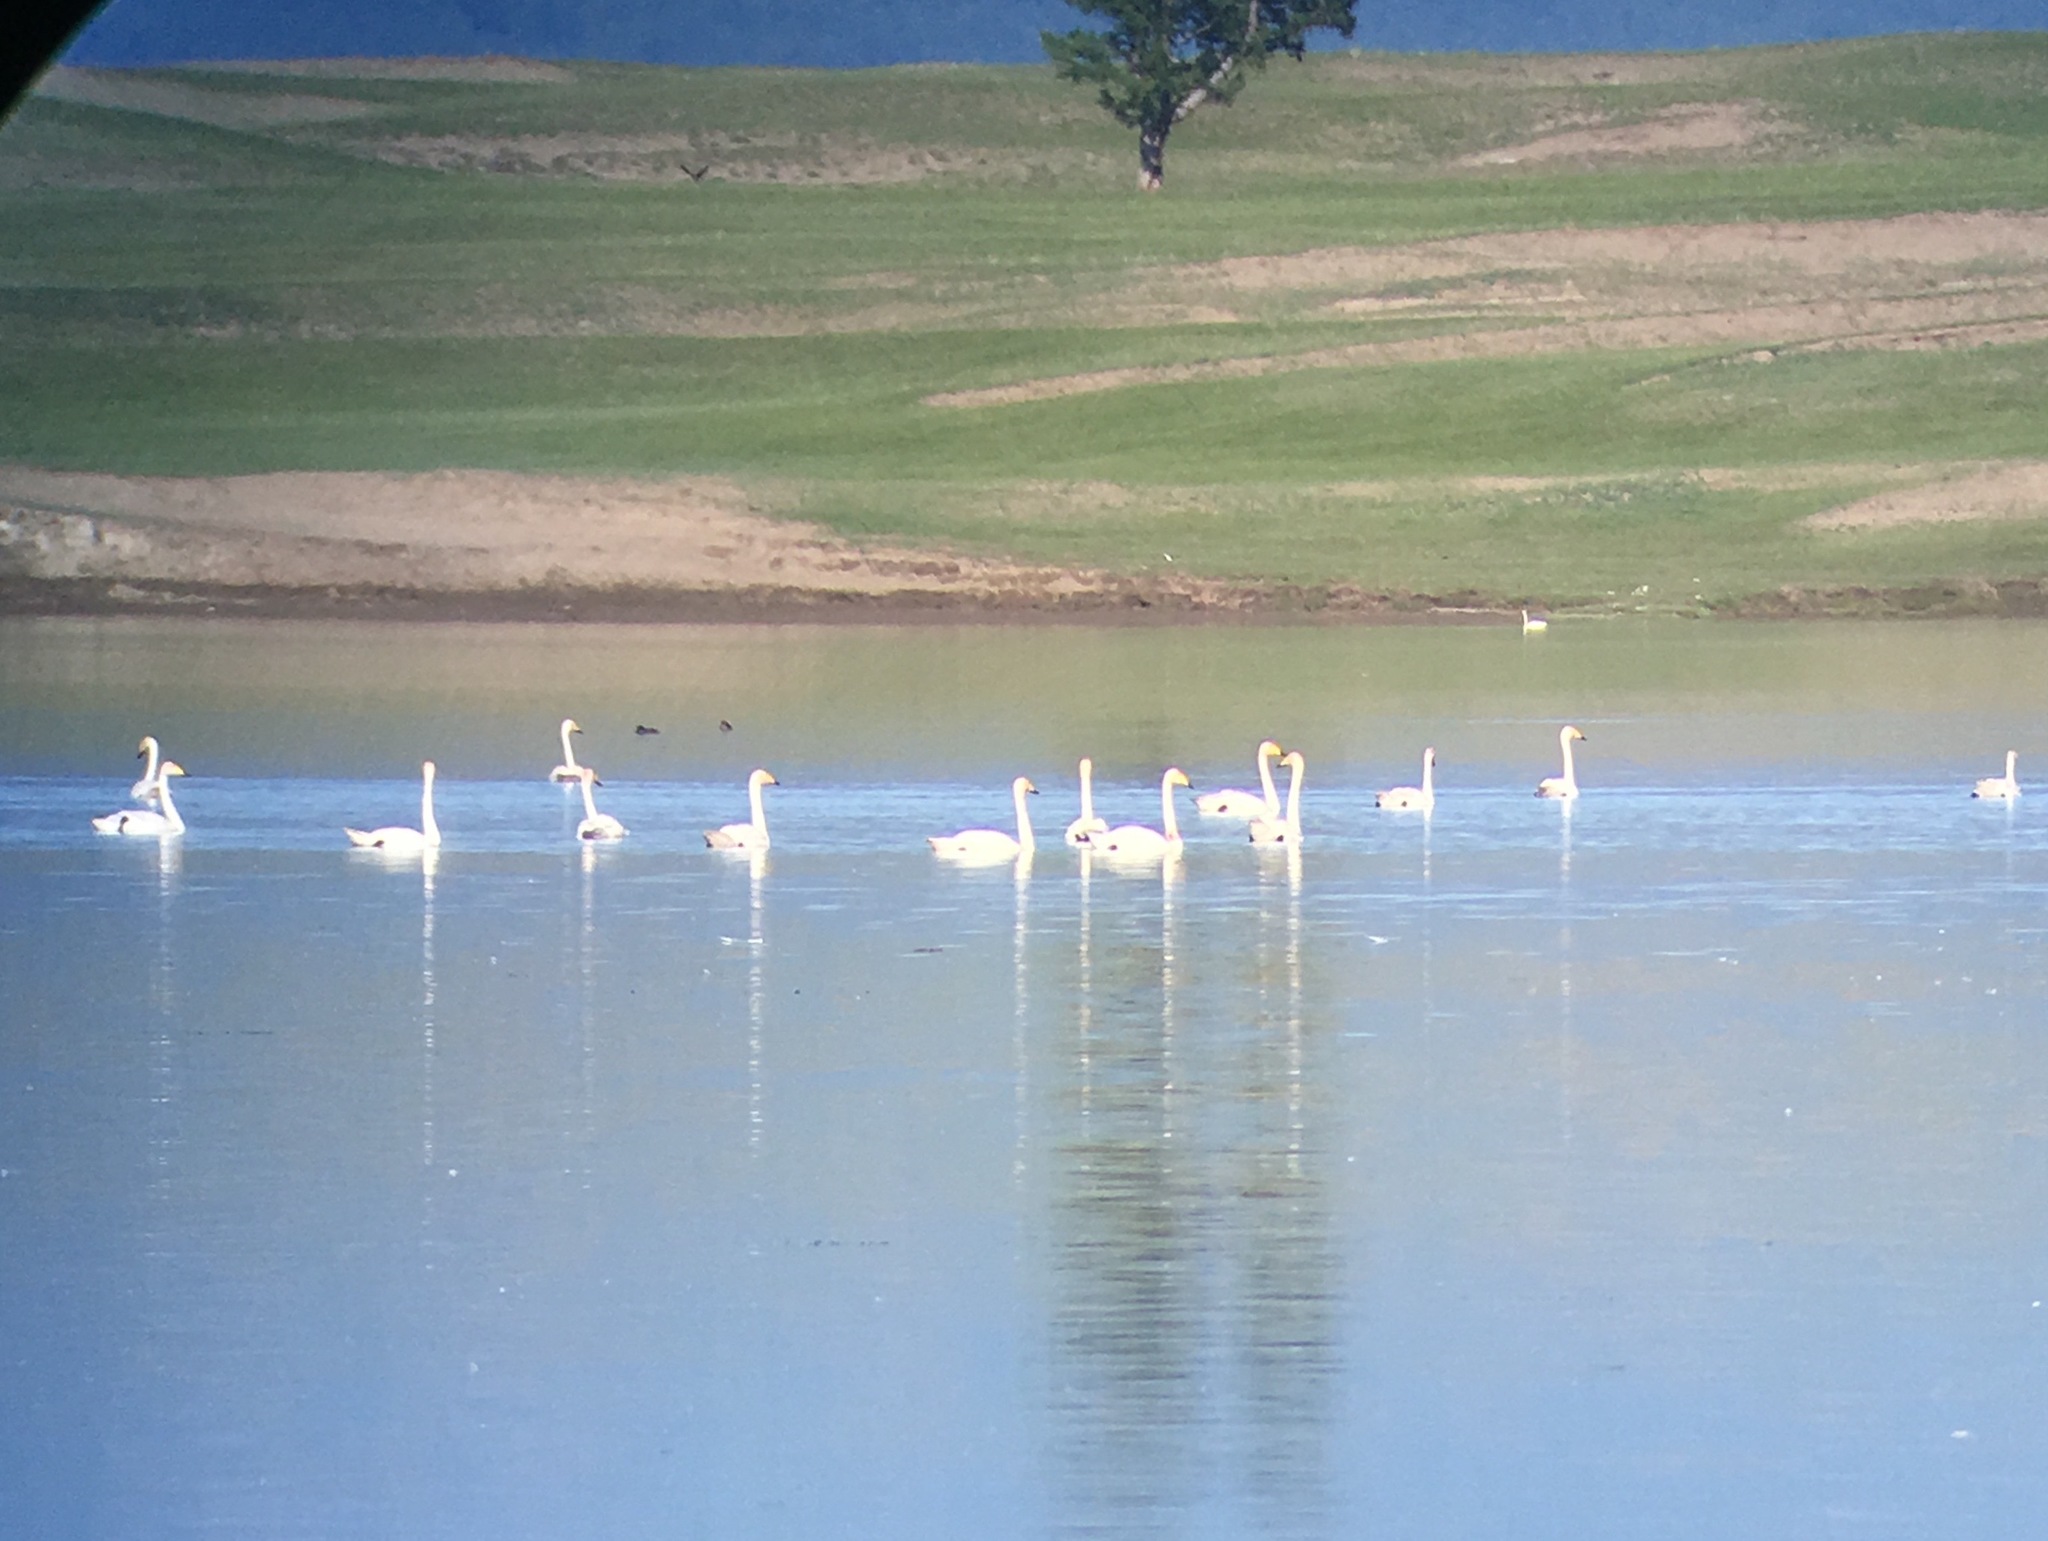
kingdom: Animalia
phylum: Chordata
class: Aves
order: Anseriformes
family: Anatidae
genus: Cygnus
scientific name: Cygnus cygnus
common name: Whooper swan
